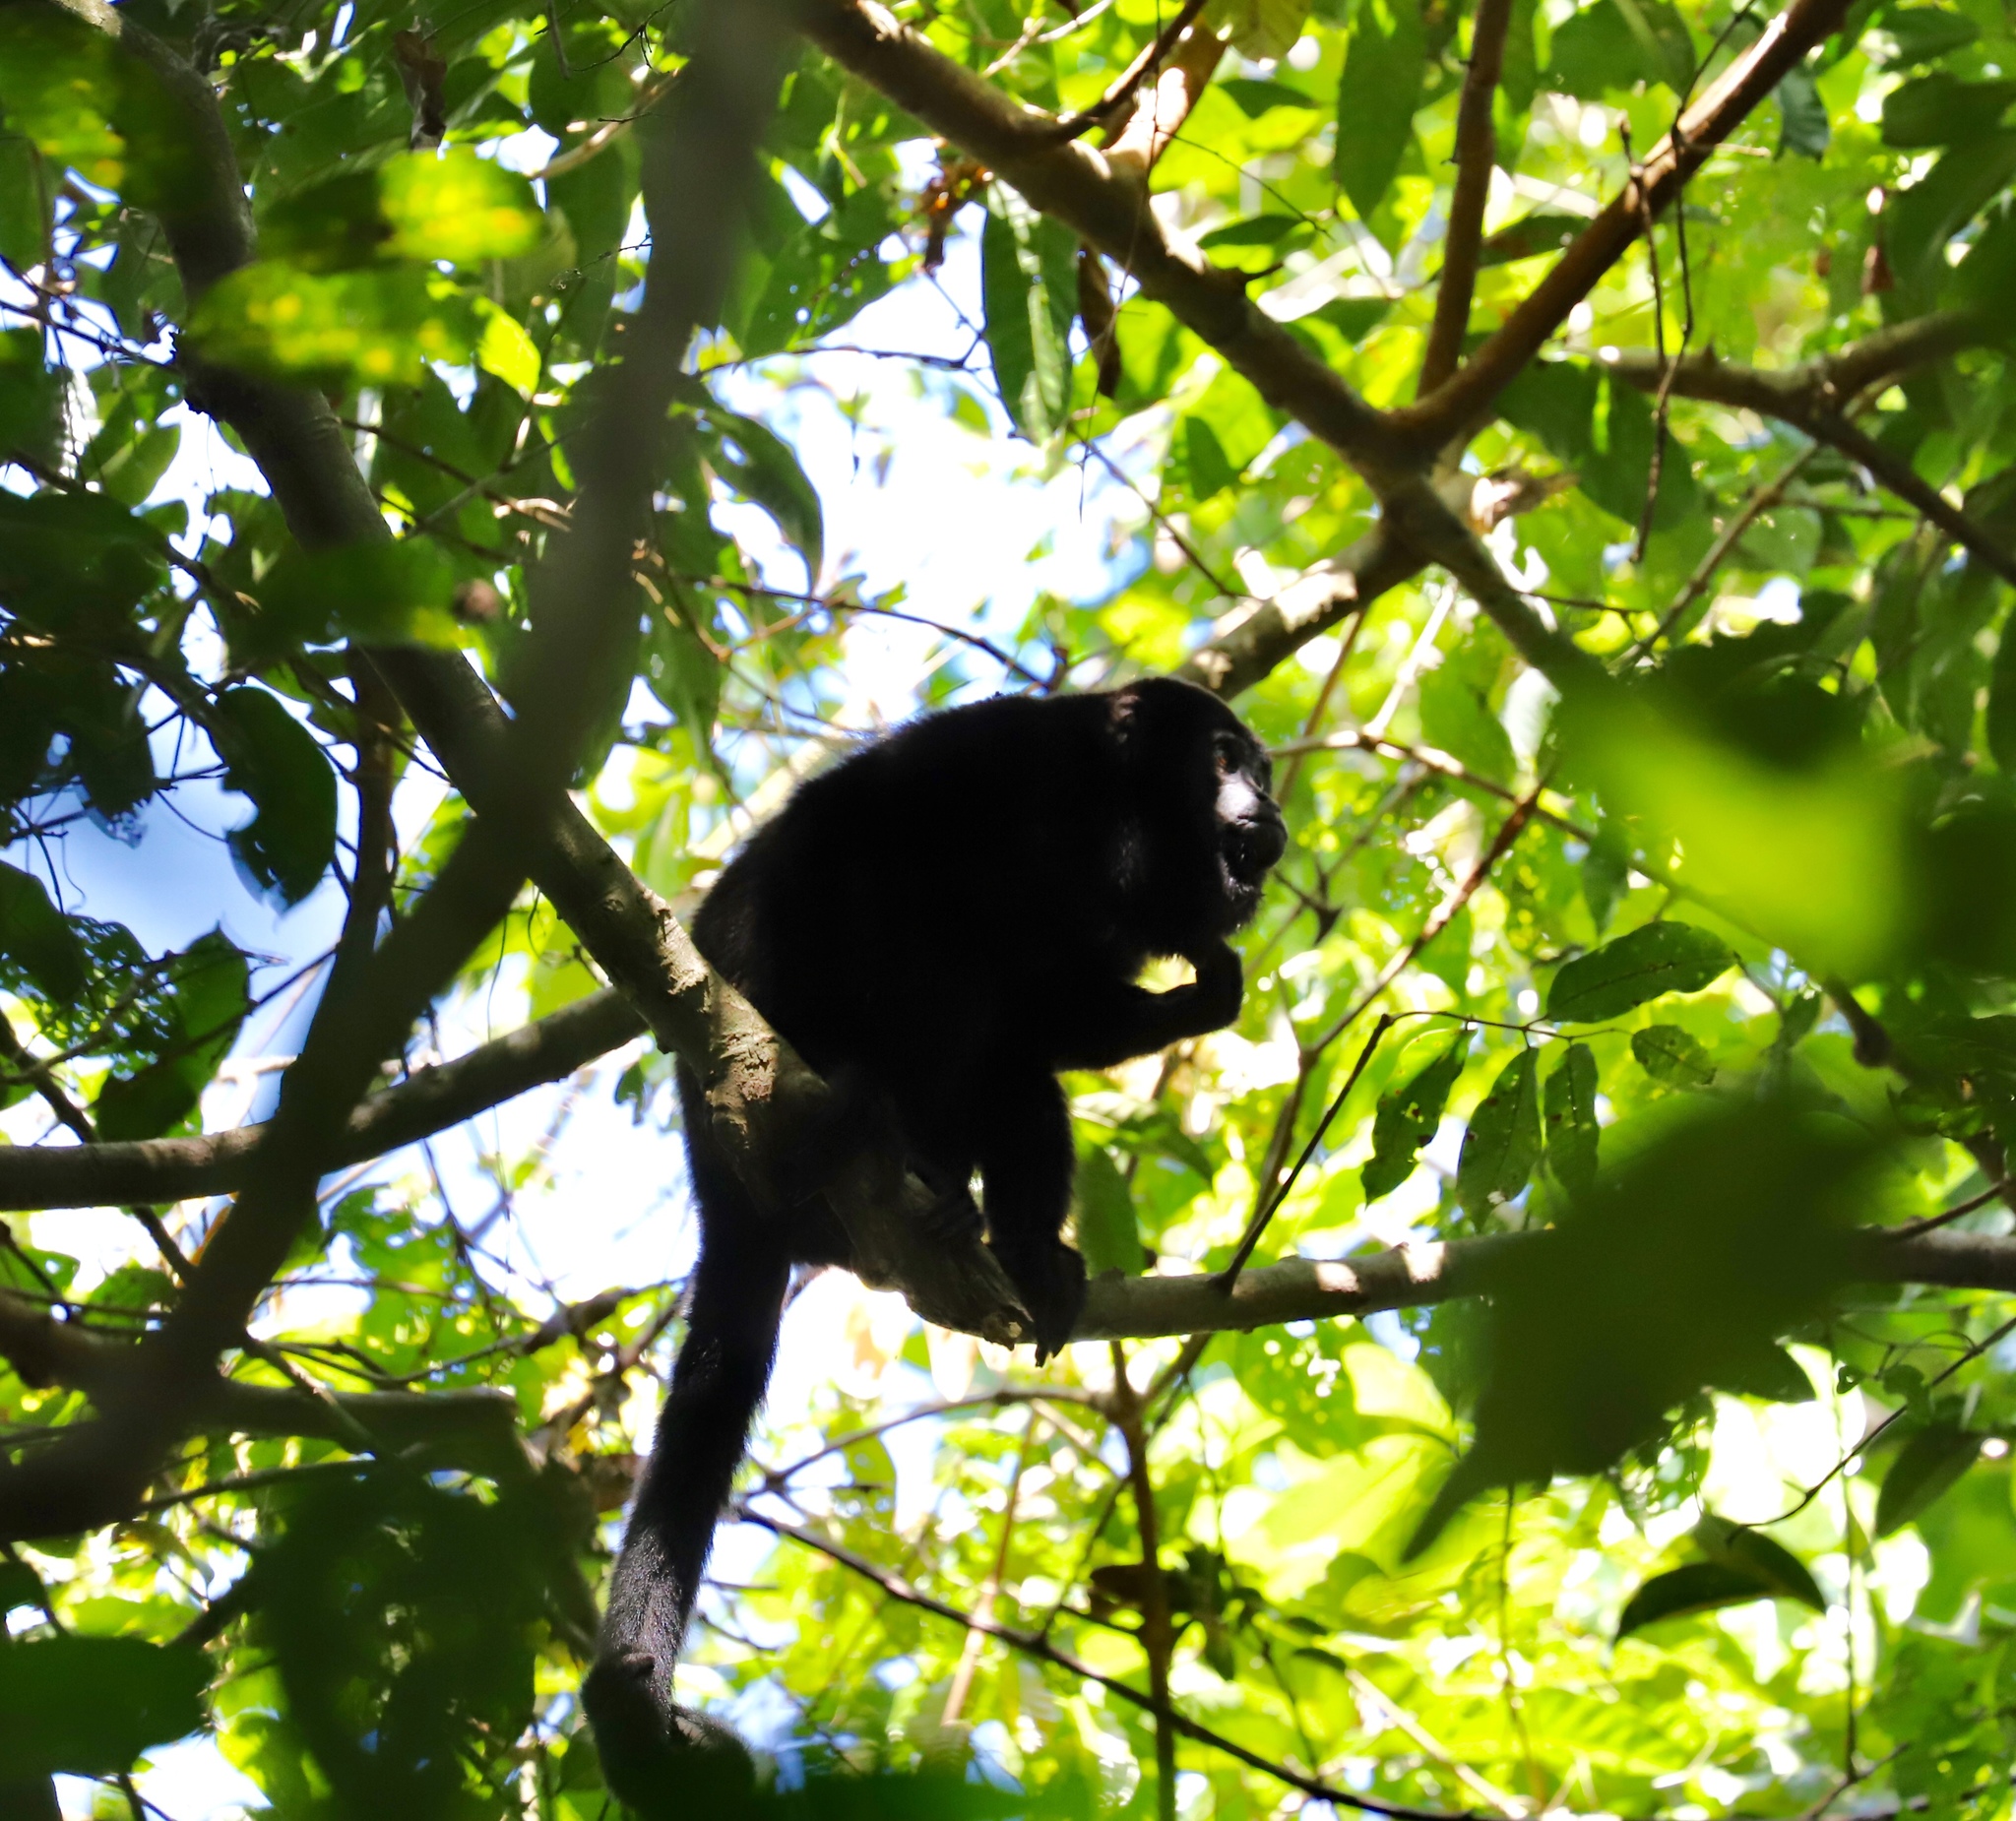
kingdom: Animalia
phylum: Chordata
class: Mammalia
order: Primates
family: Atelidae
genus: Alouatta
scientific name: Alouatta palliata
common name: Mantled howler
